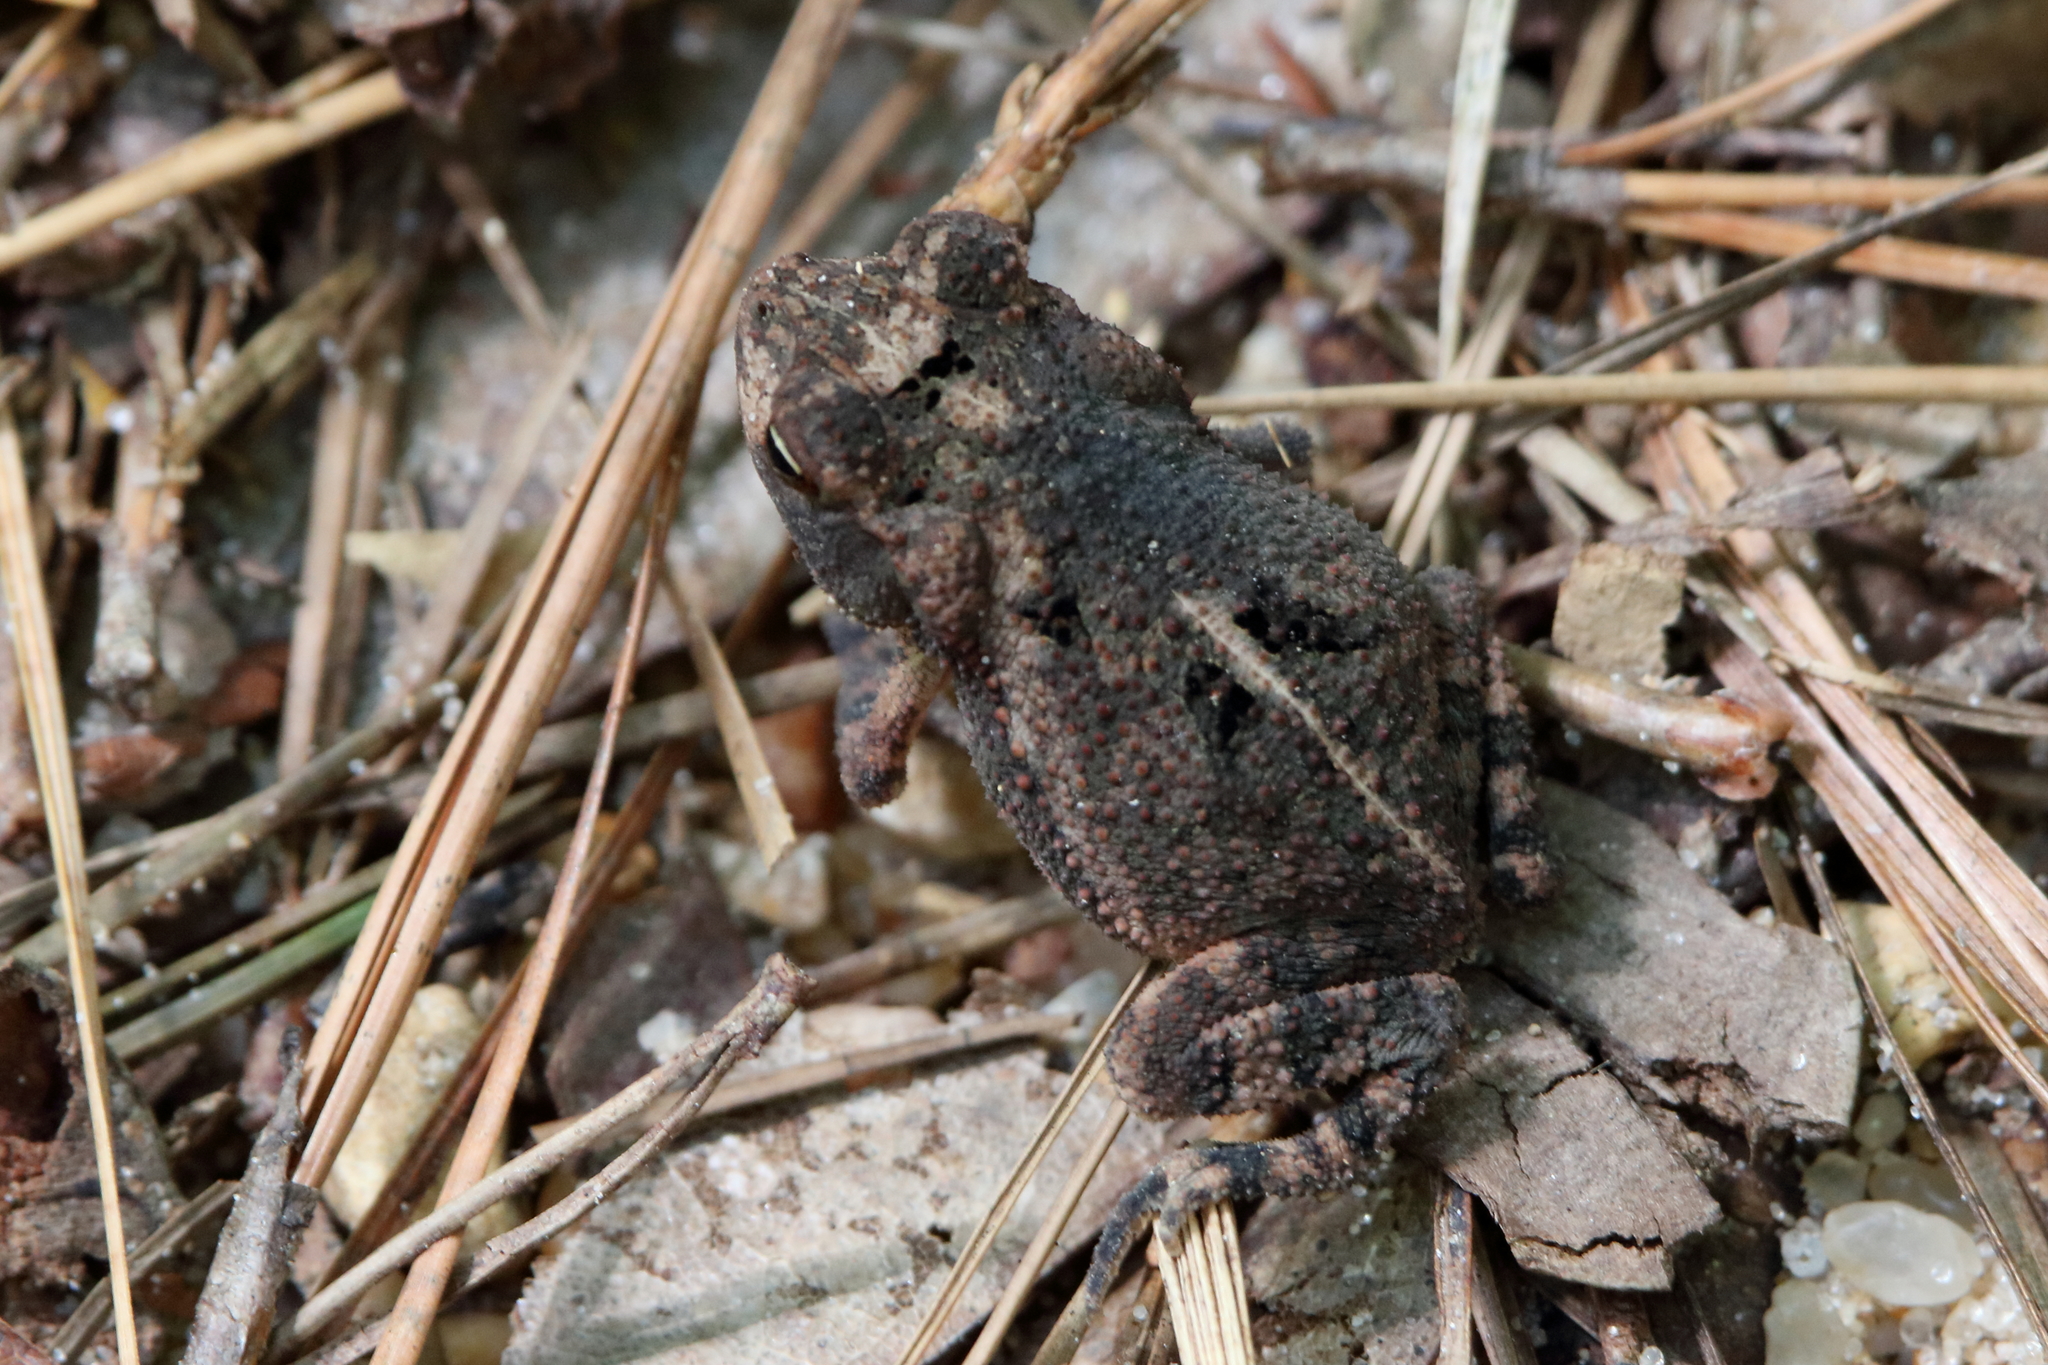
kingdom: Animalia
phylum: Chordata
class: Amphibia
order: Anura
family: Bufonidae
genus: Incilius
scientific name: Incilius nebulifer
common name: Gulf coast toad
